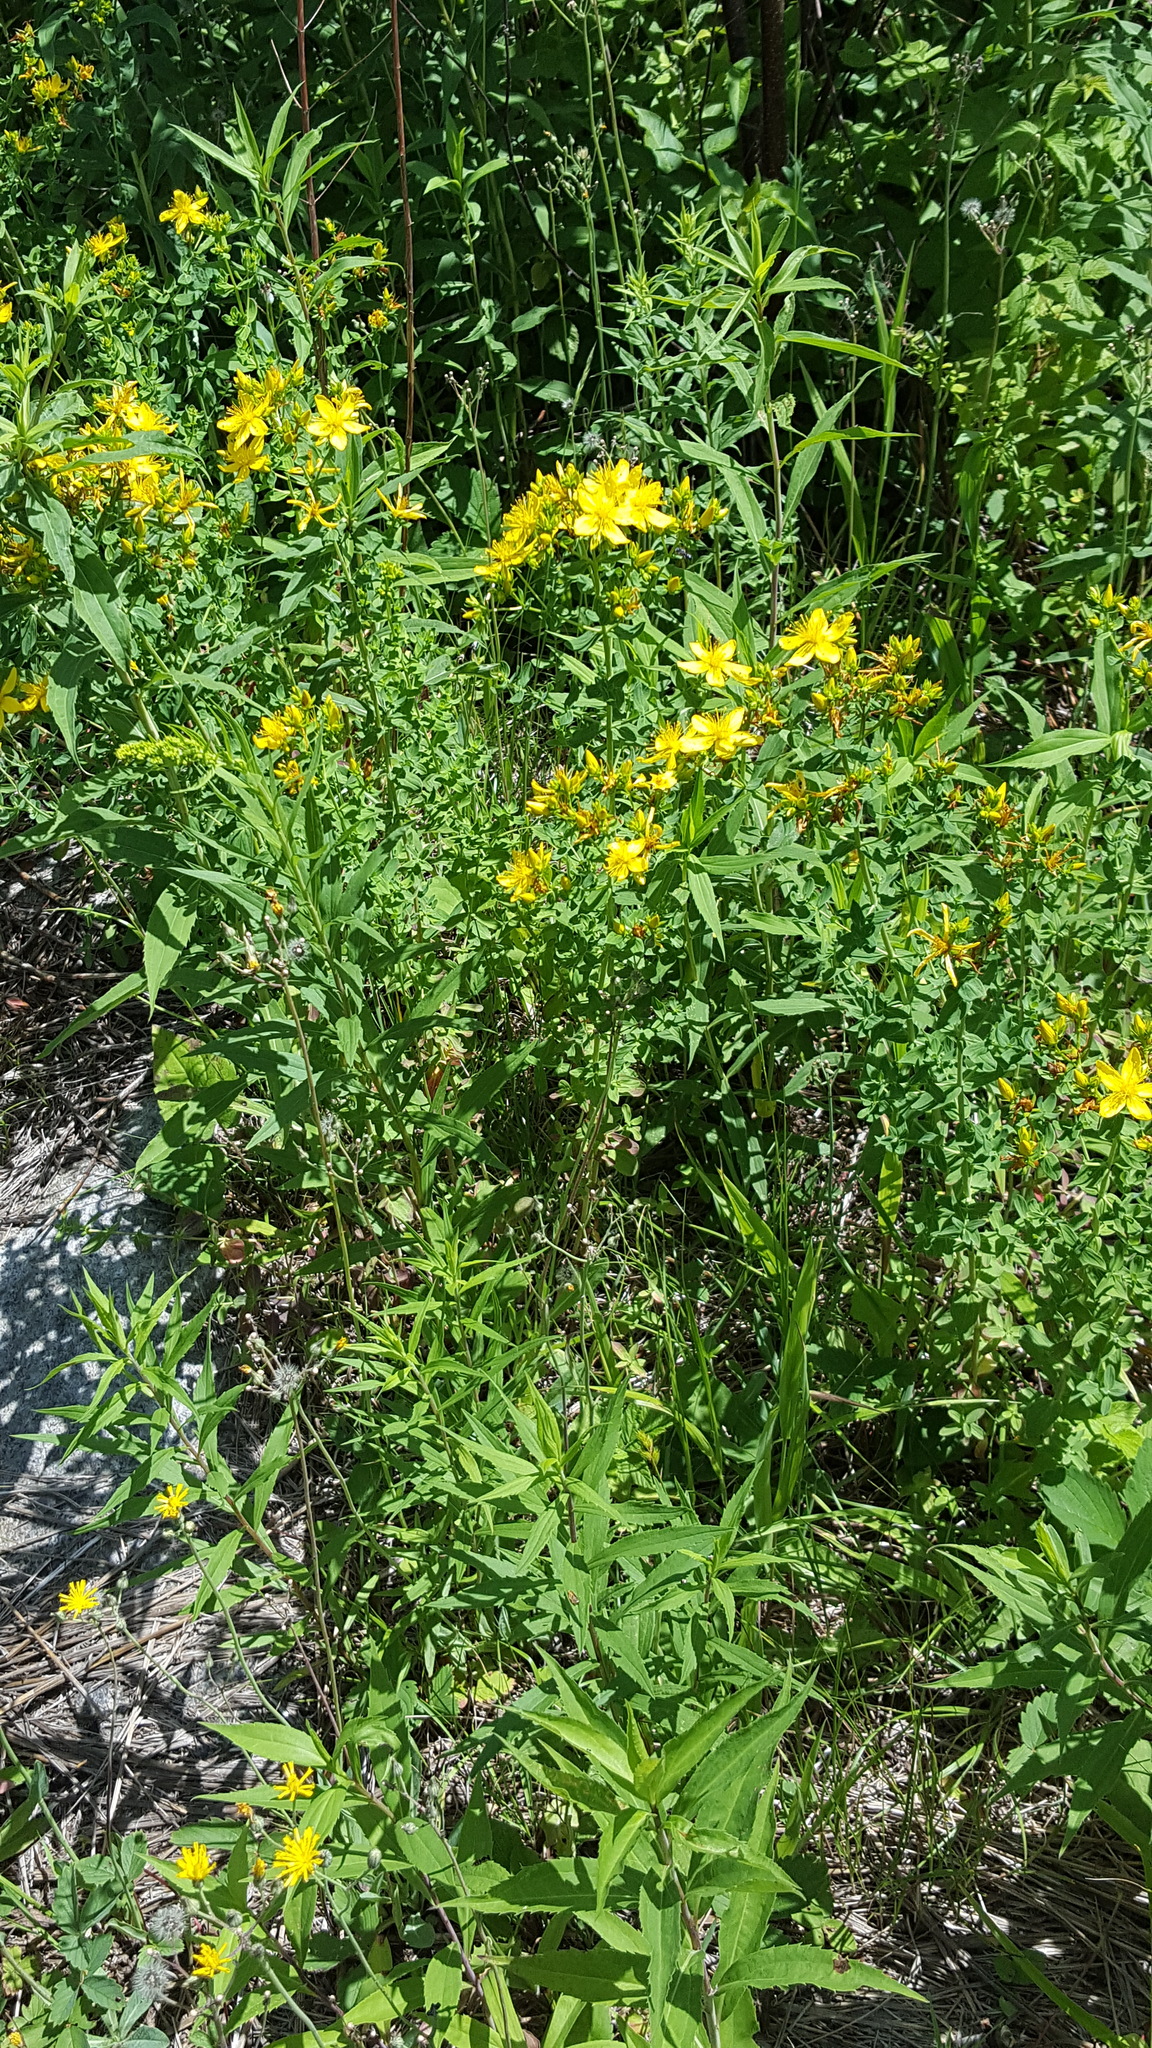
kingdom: Plantae
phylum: Tracheophyta
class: Magnoliopsida
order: Malpighiales
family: Hypericaceae
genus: Hypericum
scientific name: Hypericum perforatum
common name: Common st. johnswort
